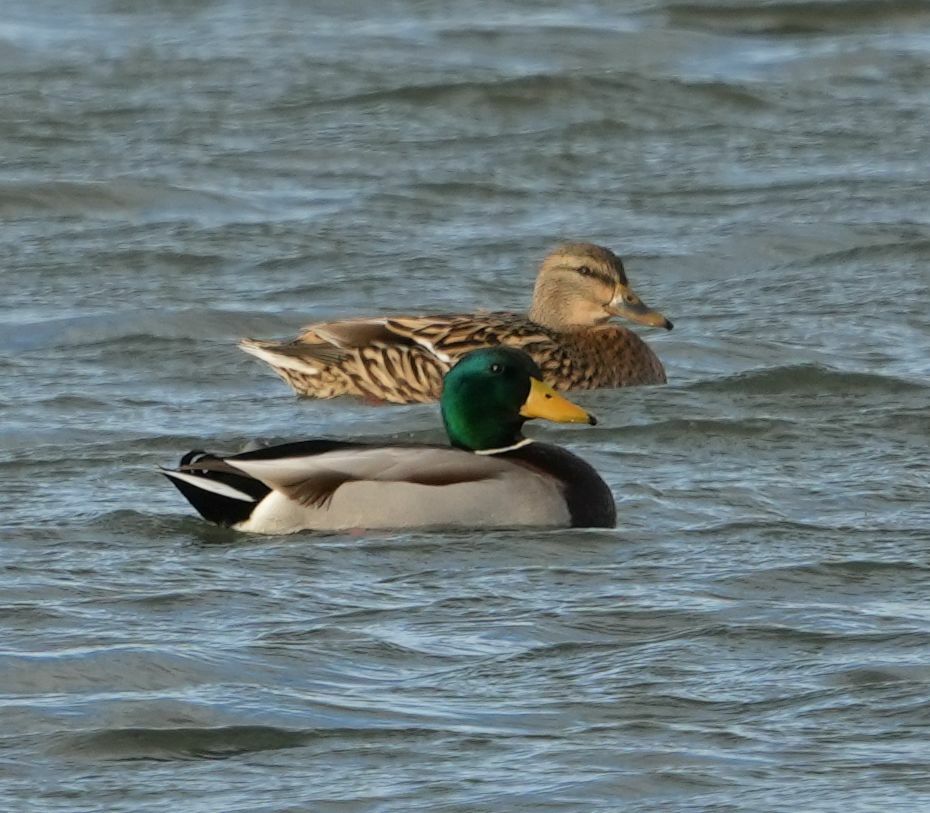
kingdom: Animalia
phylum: Chordata
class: Aves
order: Anseriformes
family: Anatidae
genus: Anas
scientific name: Anas platyrhynchos
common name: Mallard
